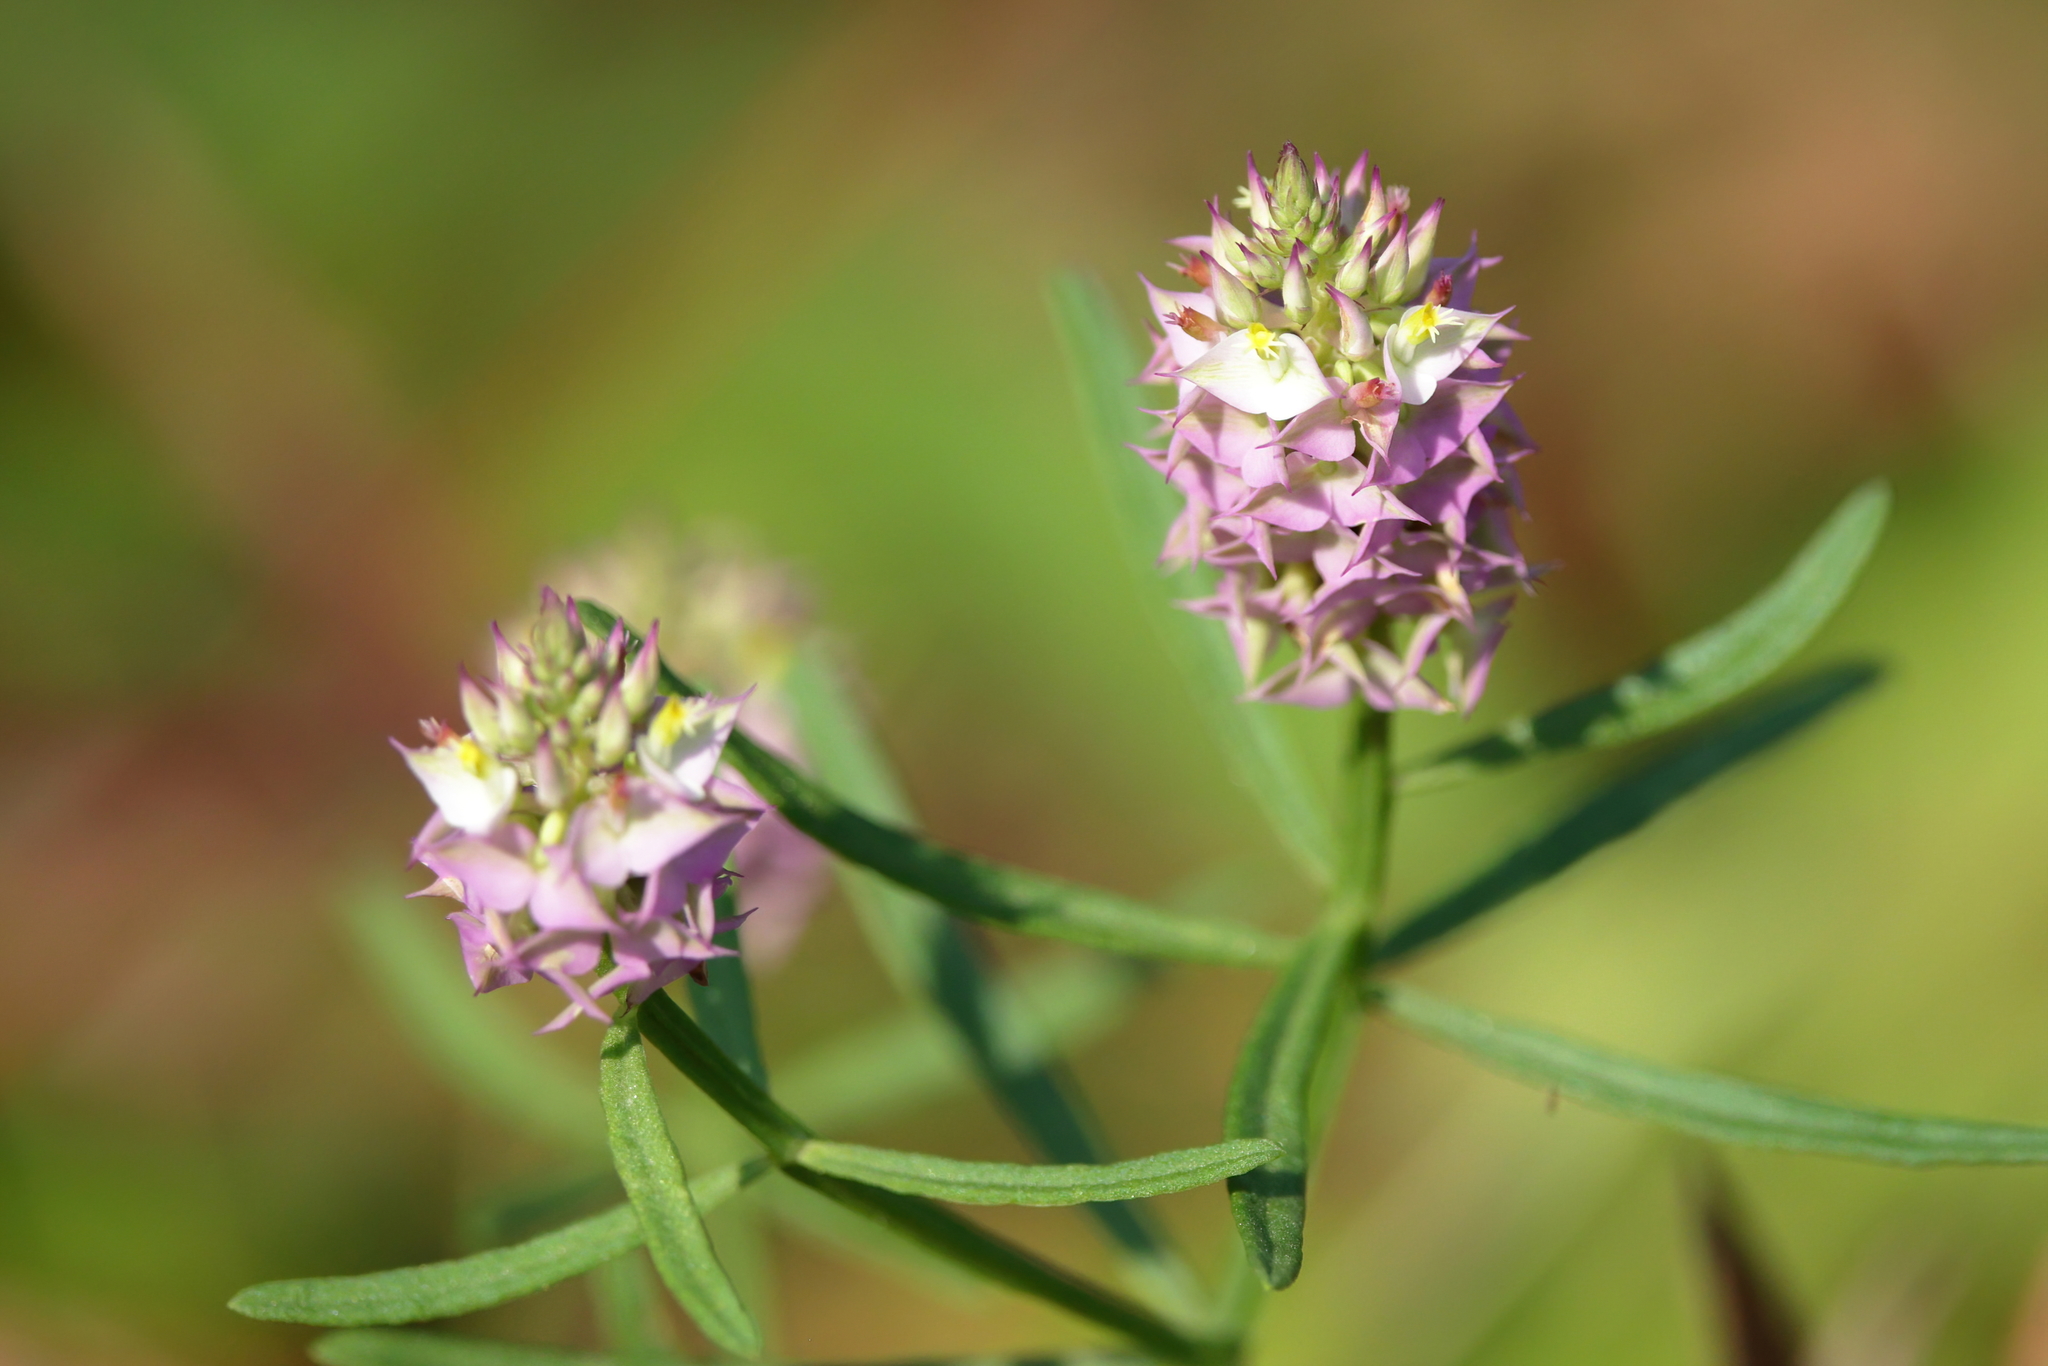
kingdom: Plantae
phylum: Tracheophyta
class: Magnoliopsida
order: Fabales
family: Polygalaceae
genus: Polygala
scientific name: Polygala cruciata
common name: Drumheads
